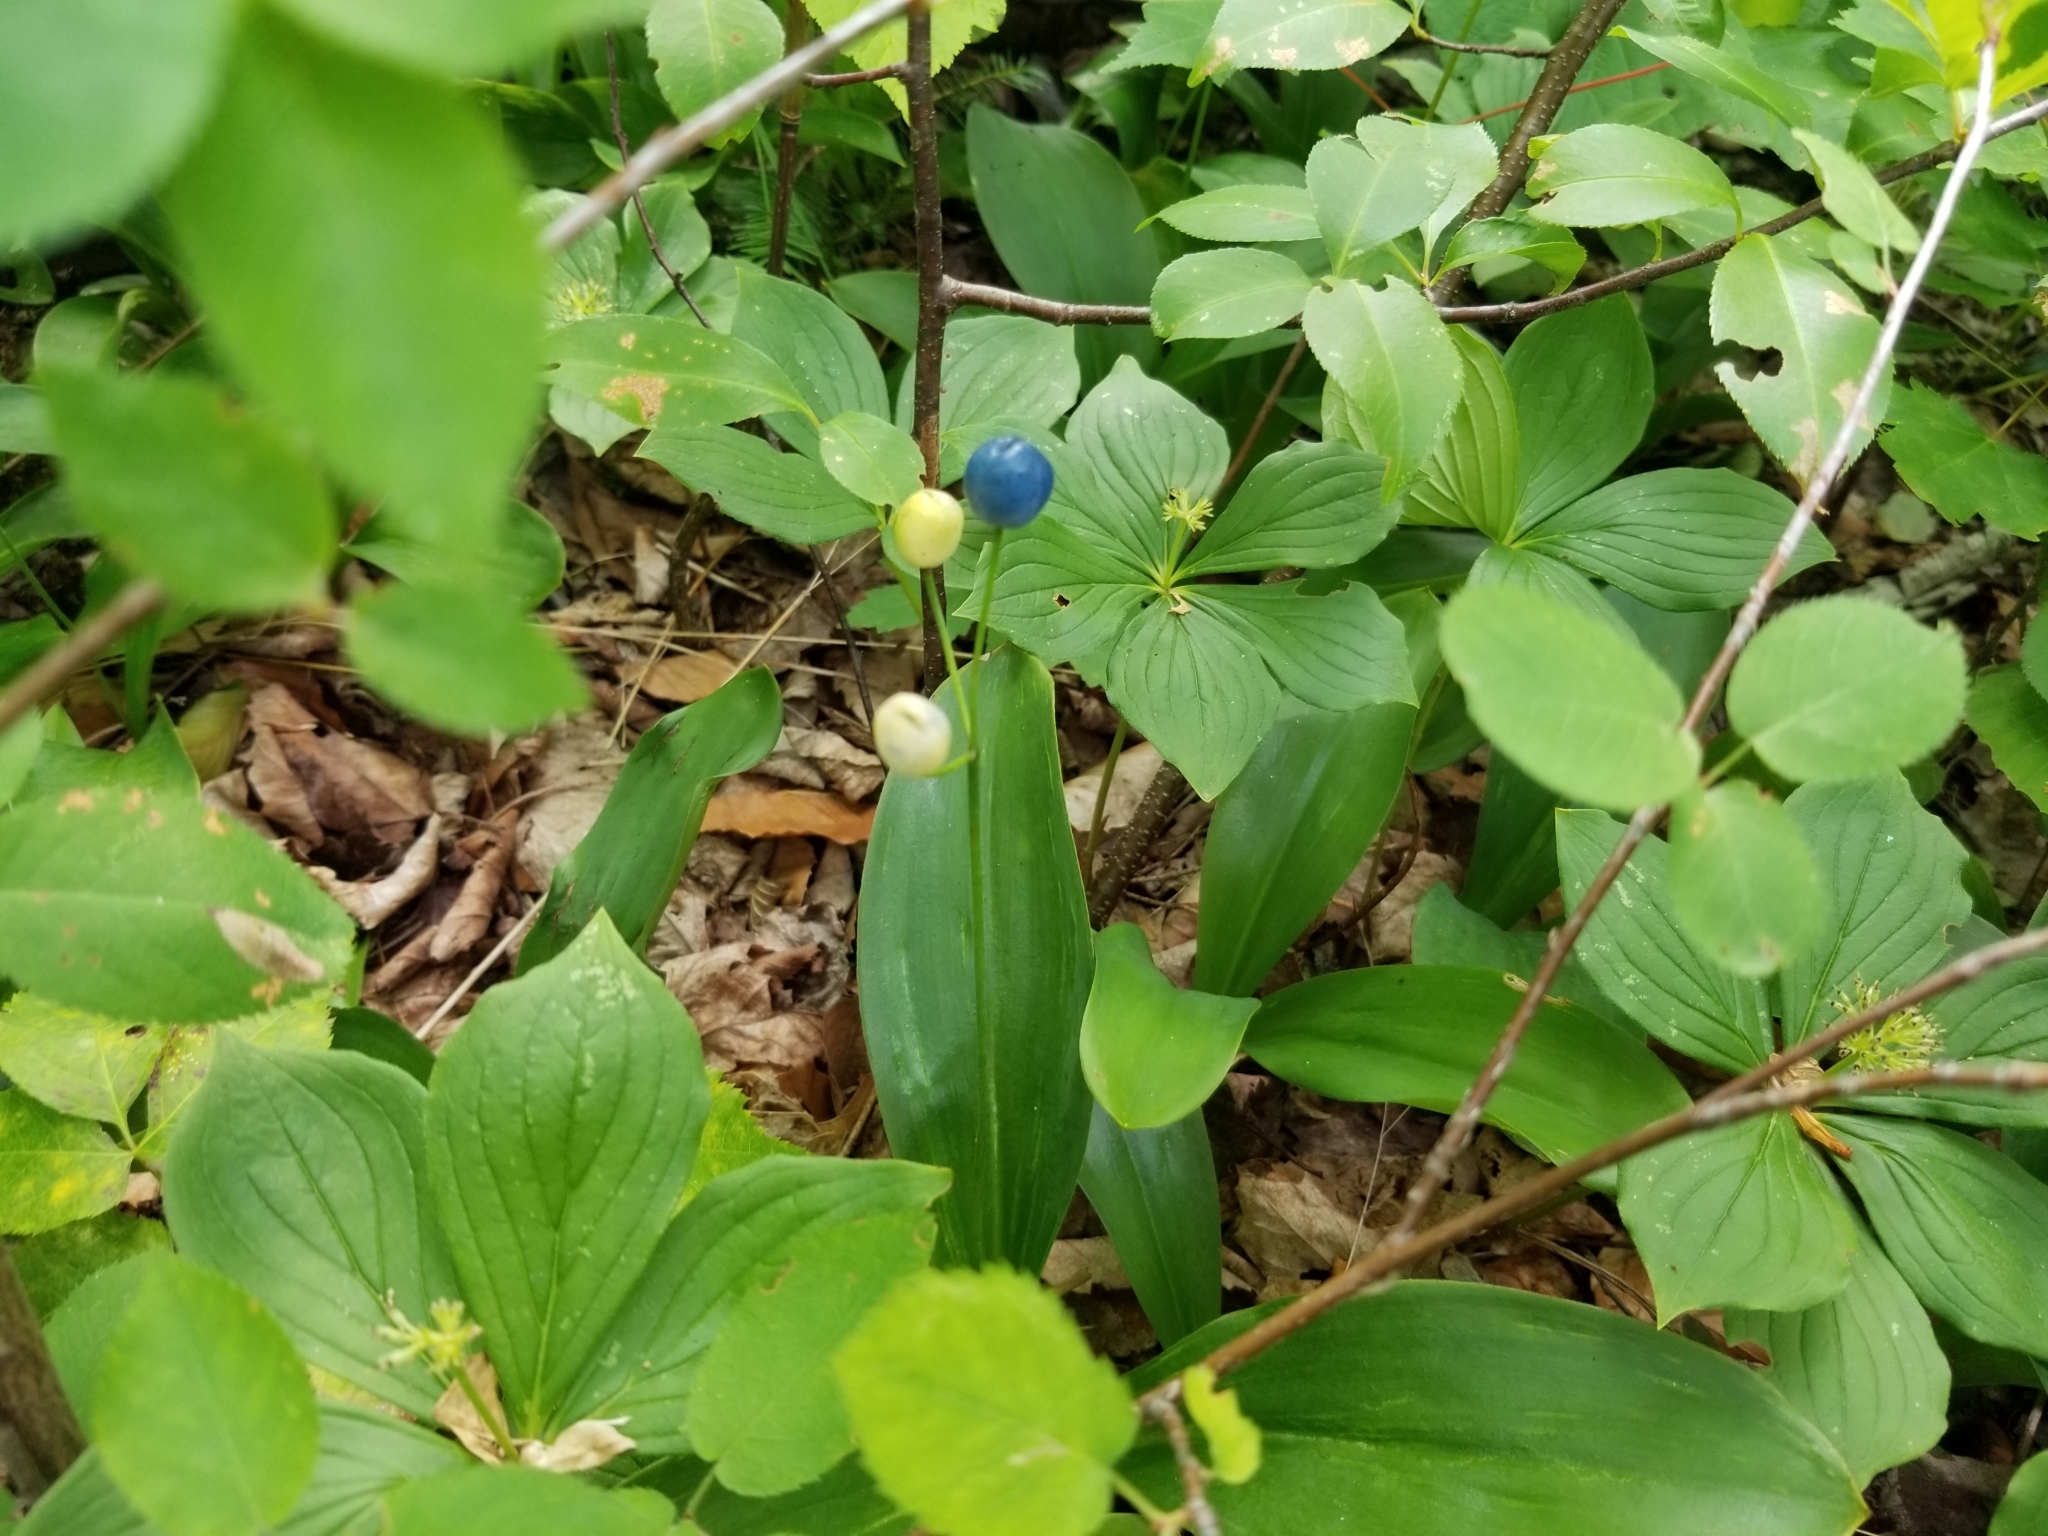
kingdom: Plantae
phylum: Tracheophyta
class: Liliopsida
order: Liliales
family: Liliaceae
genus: Clintonia
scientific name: Clintonia borealis
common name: Yellow clintonia
